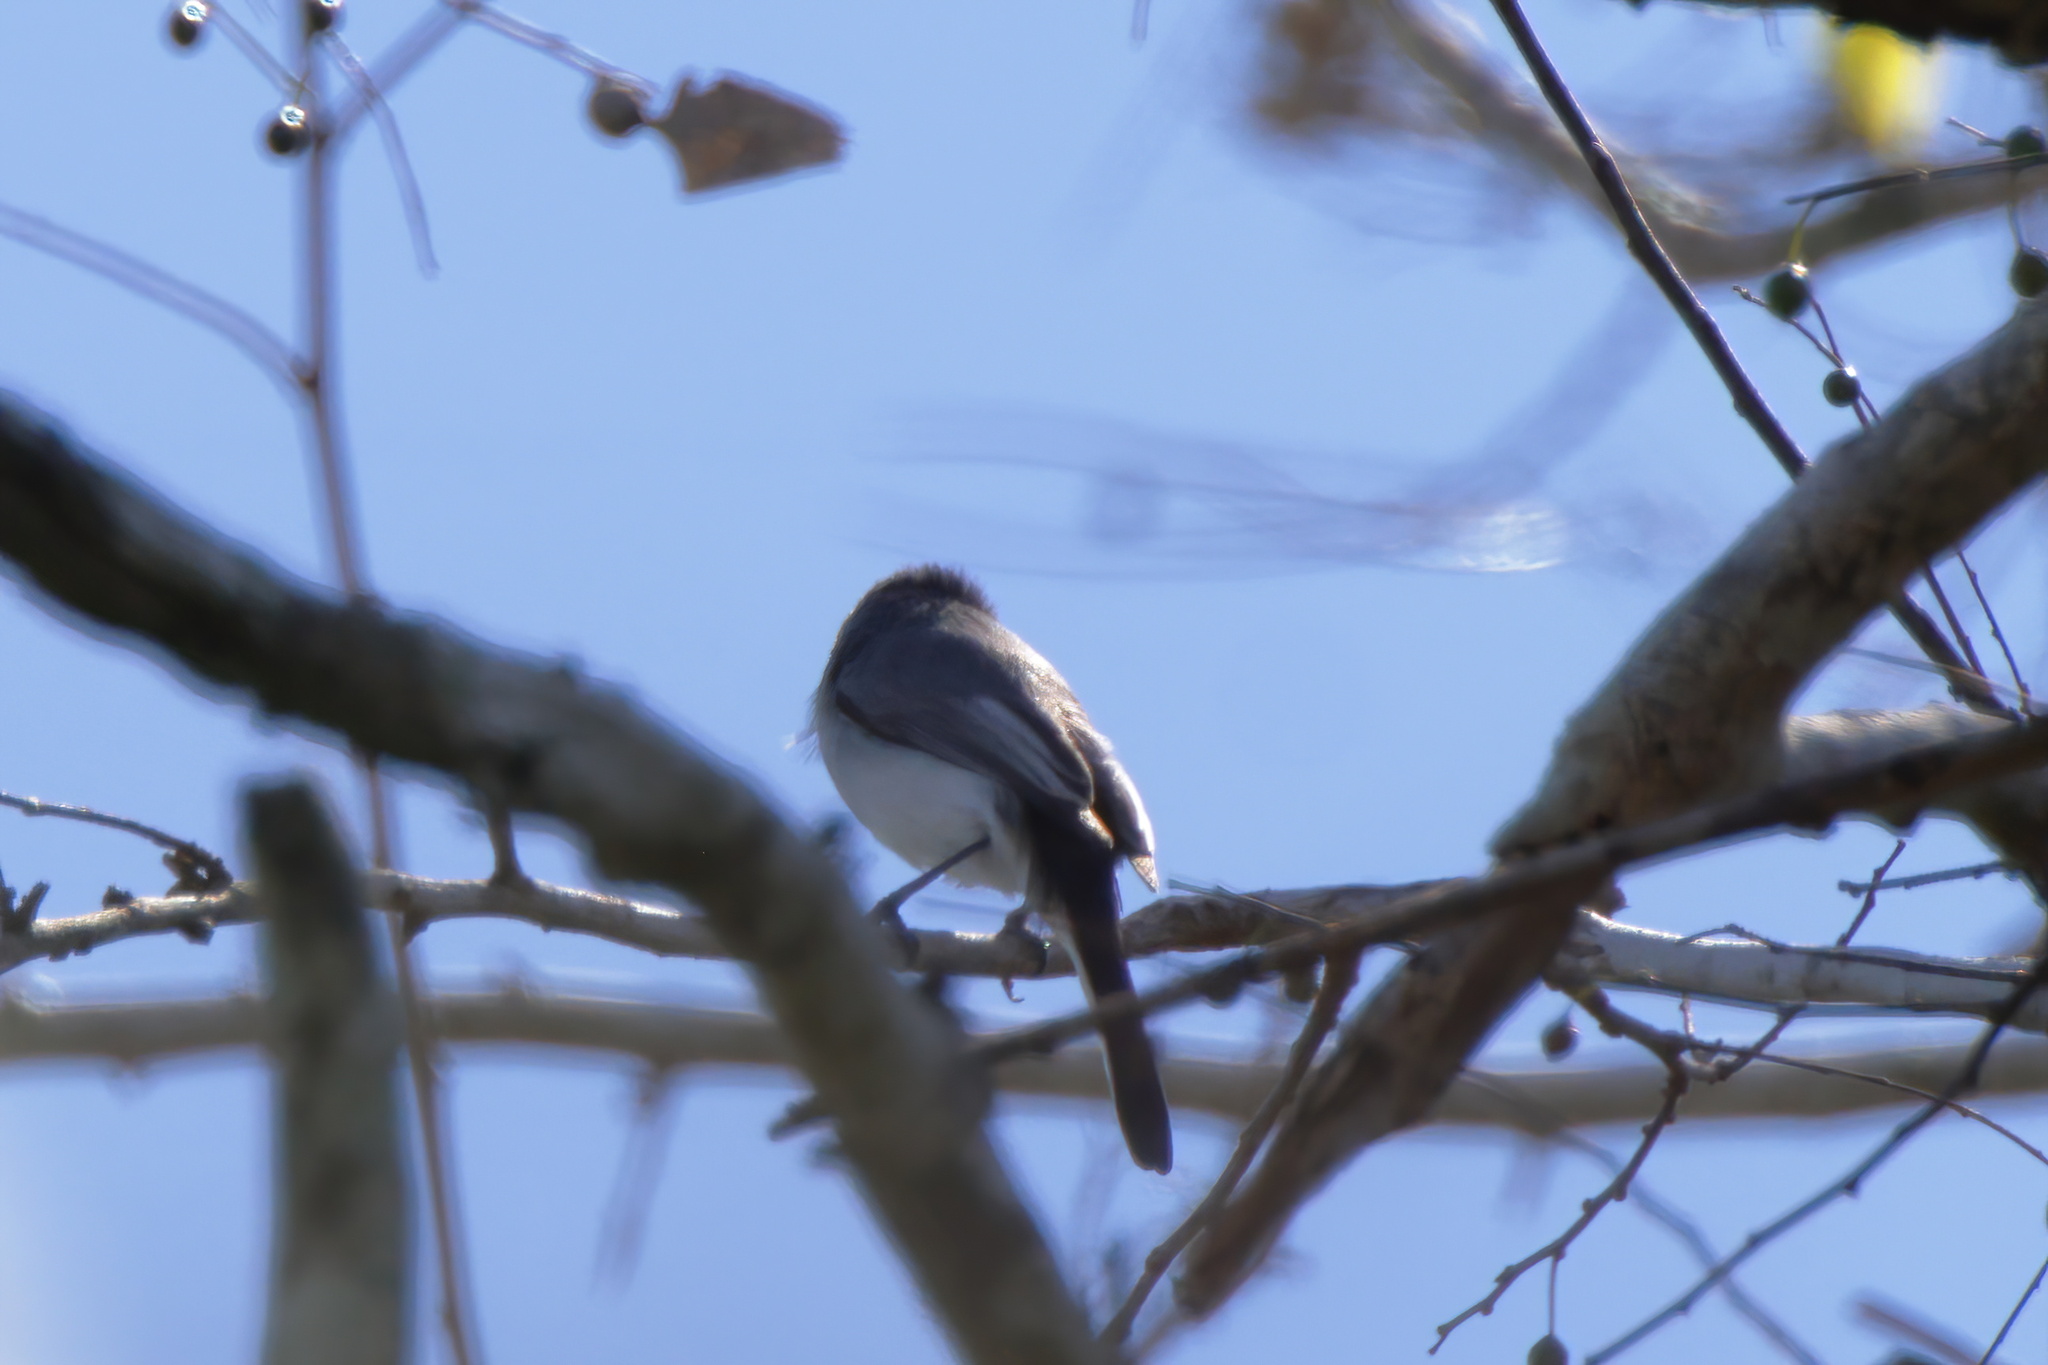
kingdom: Animalia
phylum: Chordata
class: Aves
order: Passeriformes
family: Polioptilidae
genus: Polioptila
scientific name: Polioptila caerulea
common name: Blue-gray gnatcatcher
